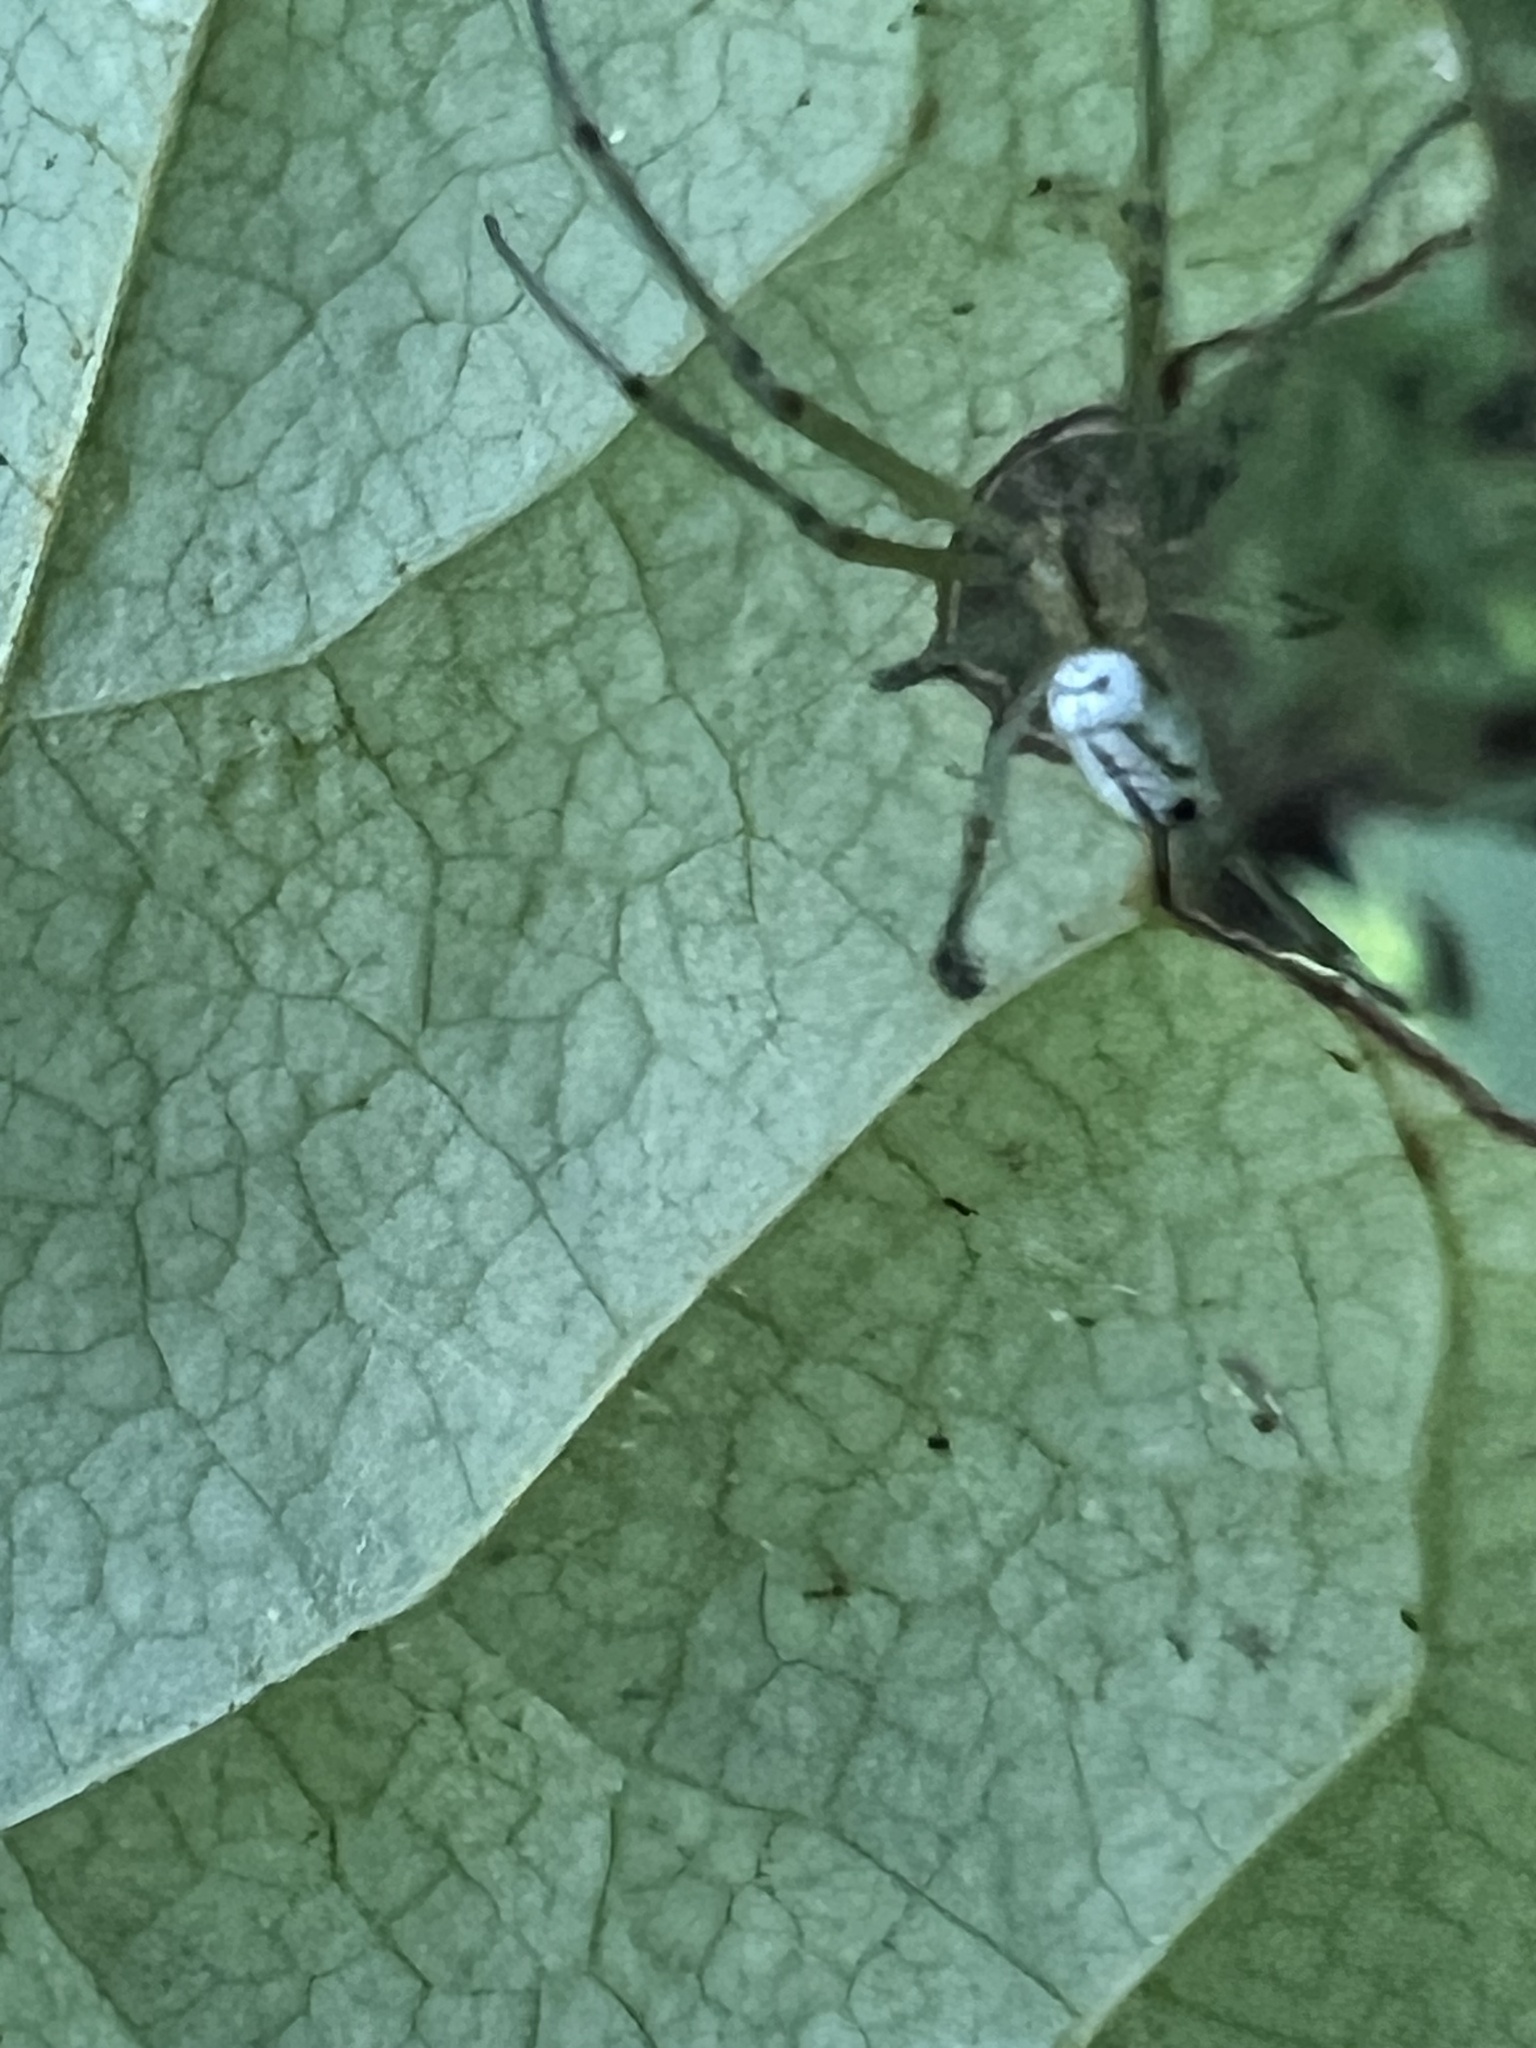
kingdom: Animalia
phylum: Arthropoda
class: Arachnida
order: Araneae
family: Tetragnathidae
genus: Leucauge
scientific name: Leucauge venusta
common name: Longjawed orb weavers
